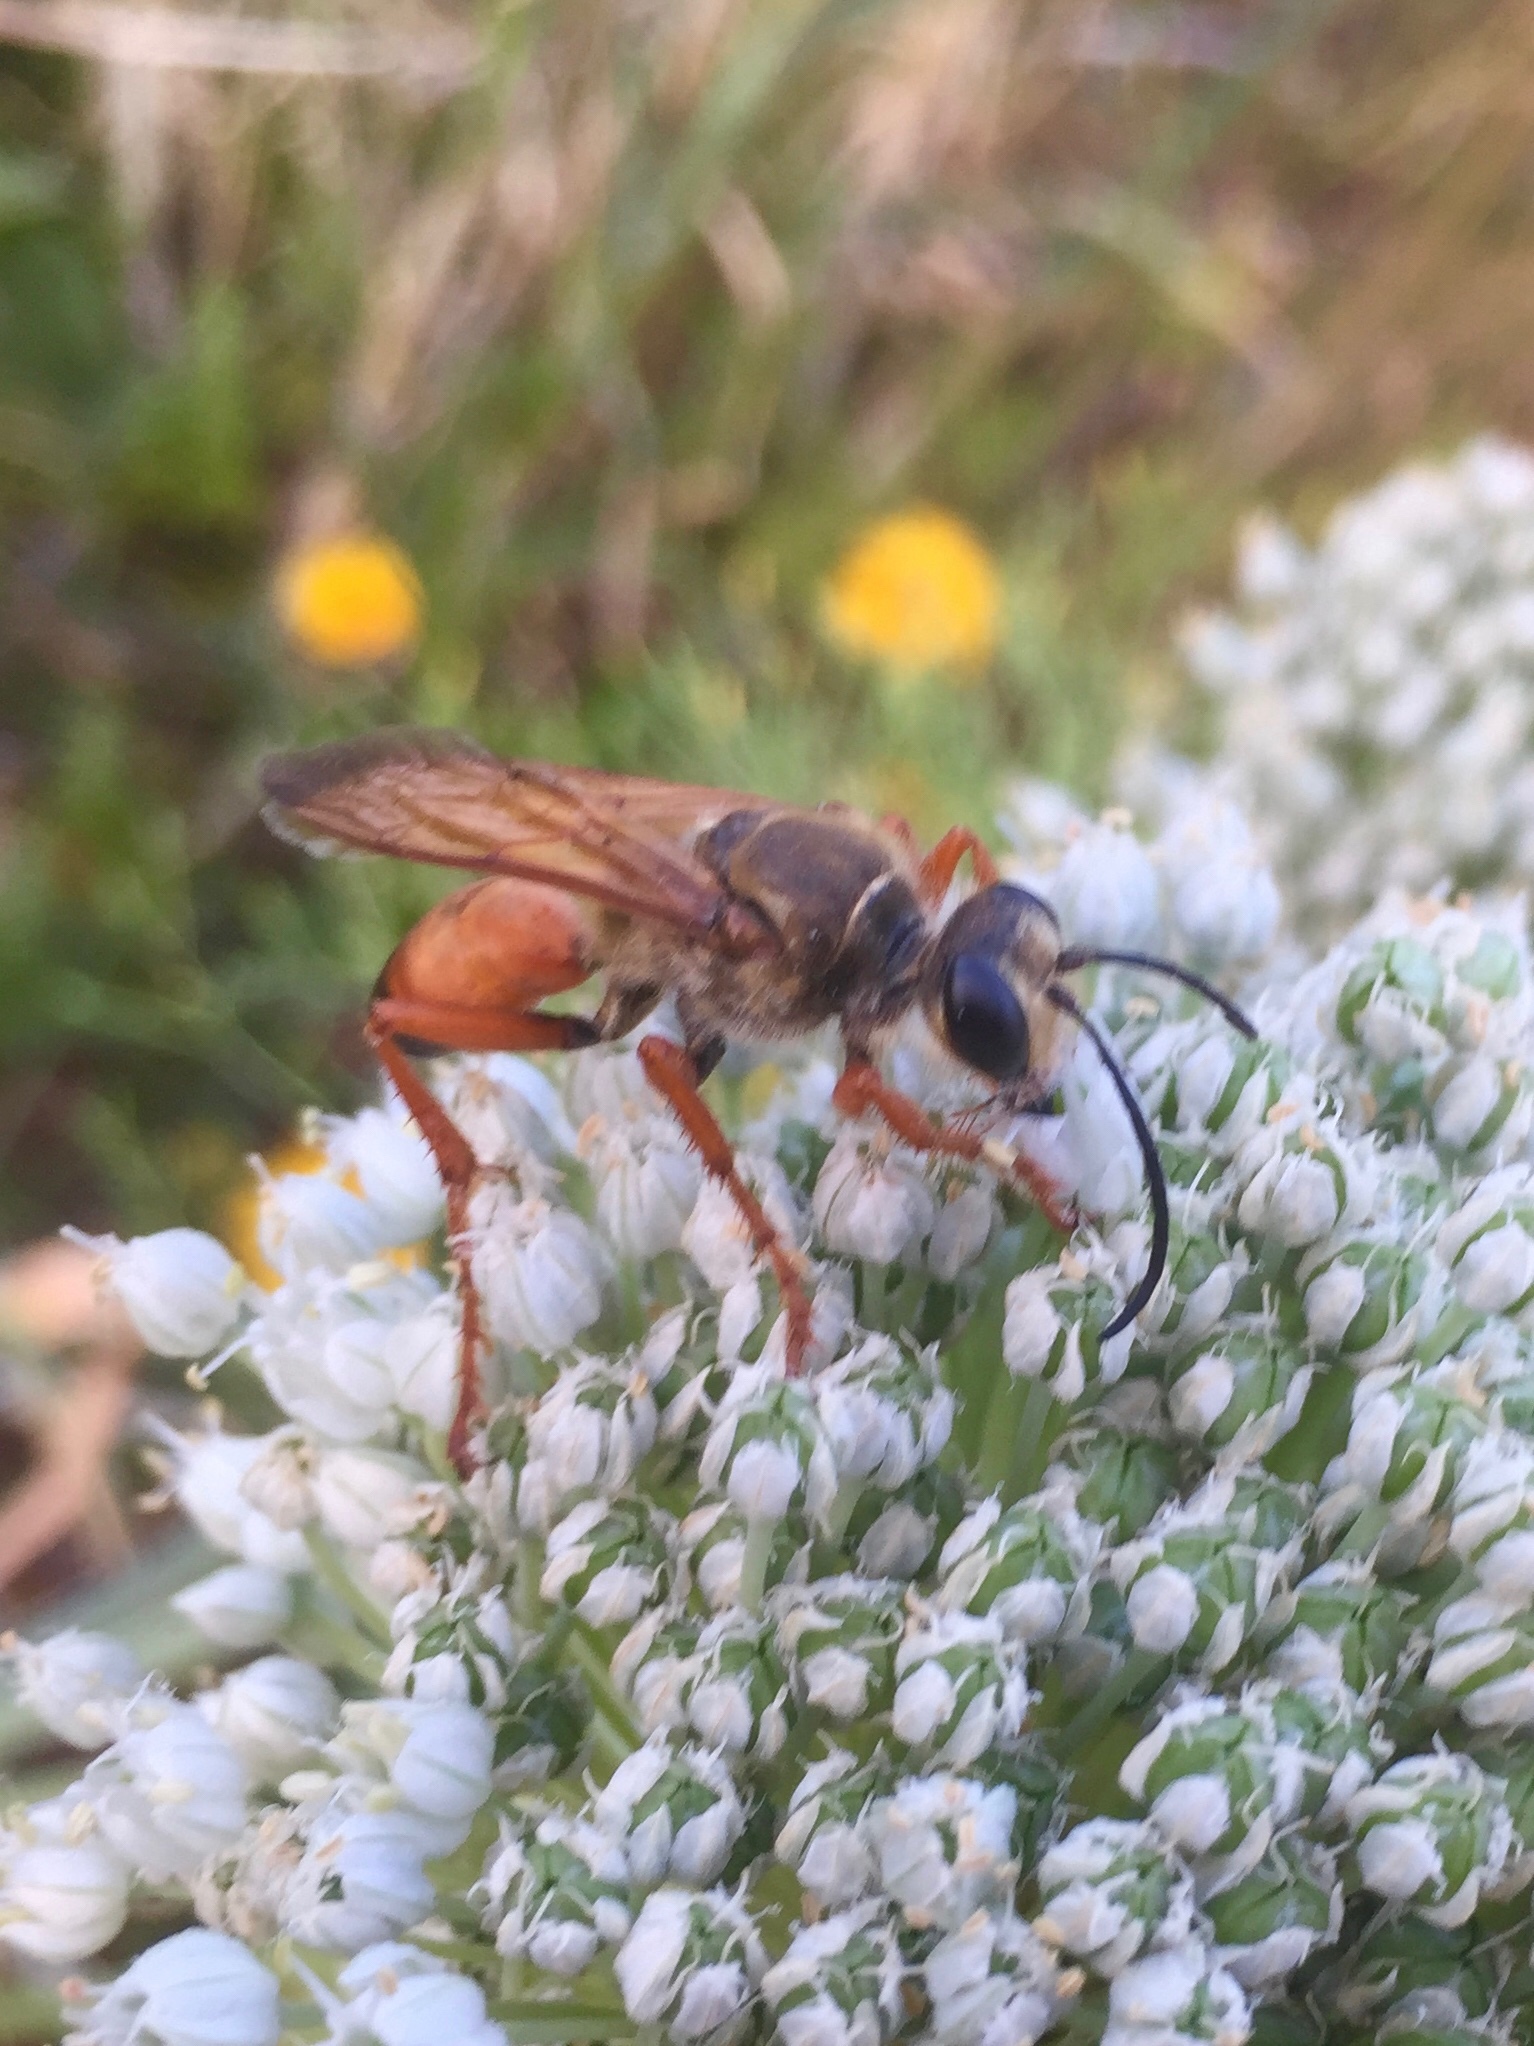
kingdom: Animalia
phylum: Arthropoda
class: Insecta
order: Hymenoptera
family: Sphecidae
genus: Sphex
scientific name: Sphex ichneumoneus
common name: Great golden digger wasp
